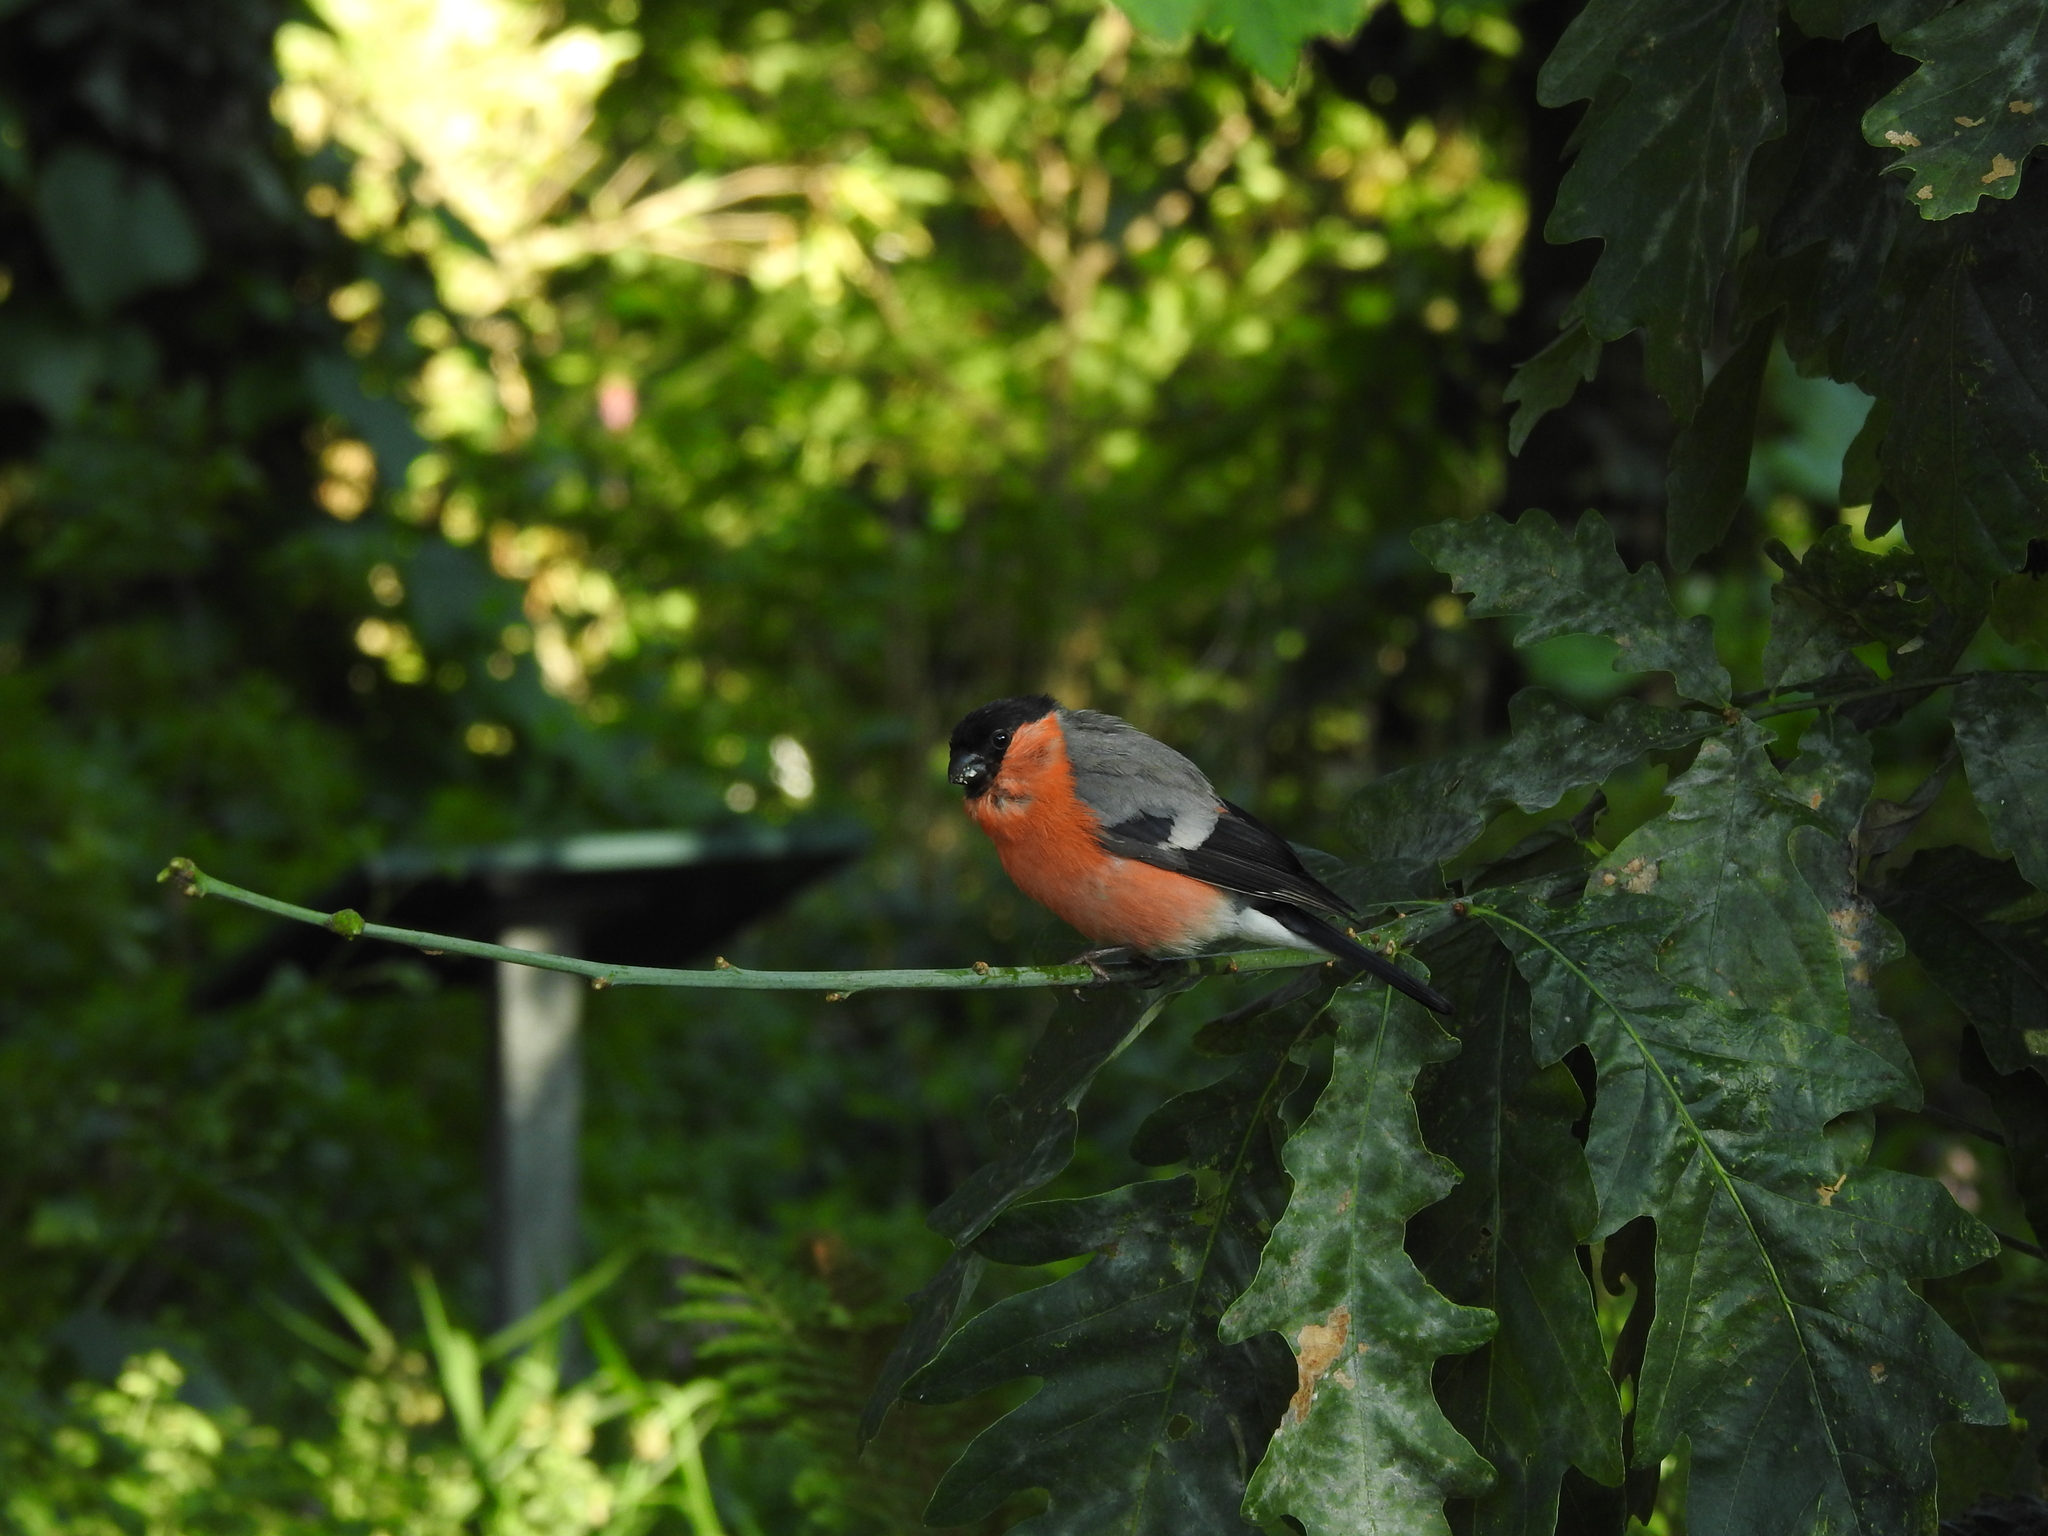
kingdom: Animalia
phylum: Chordata
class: Aves
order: Passeriformes
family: Fringillidae
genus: Pyrrhula
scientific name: Pyrrhula pyrrhula
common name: Eurasian bullfinch
